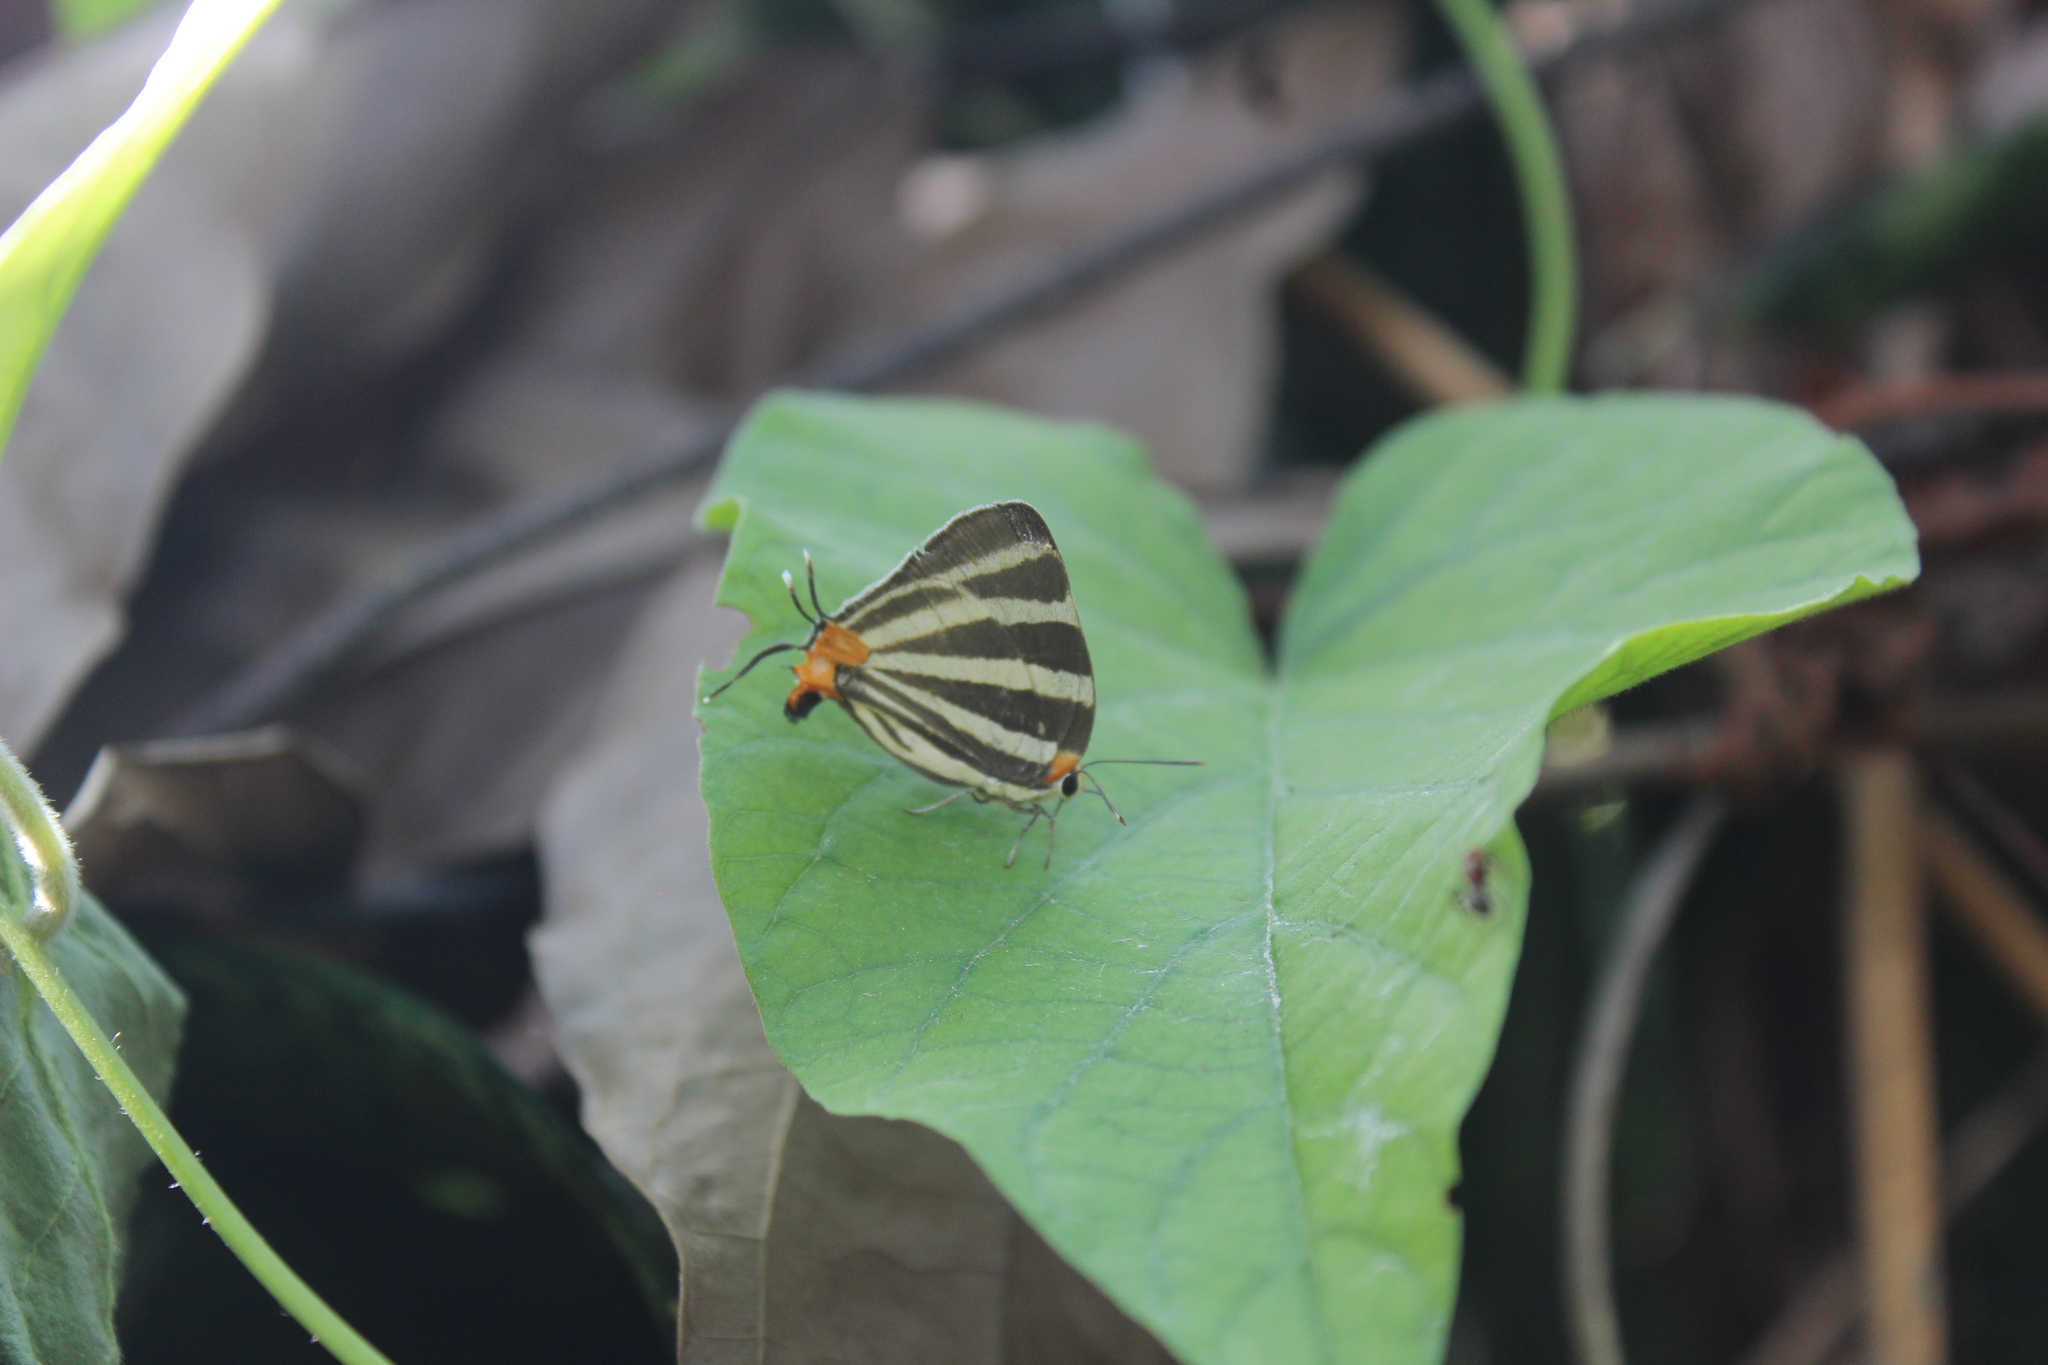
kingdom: Animalia
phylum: Arthropoda
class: Insecta
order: Lepidoptera
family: Lycaenidae
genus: Thecla
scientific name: Thecla bathildis
